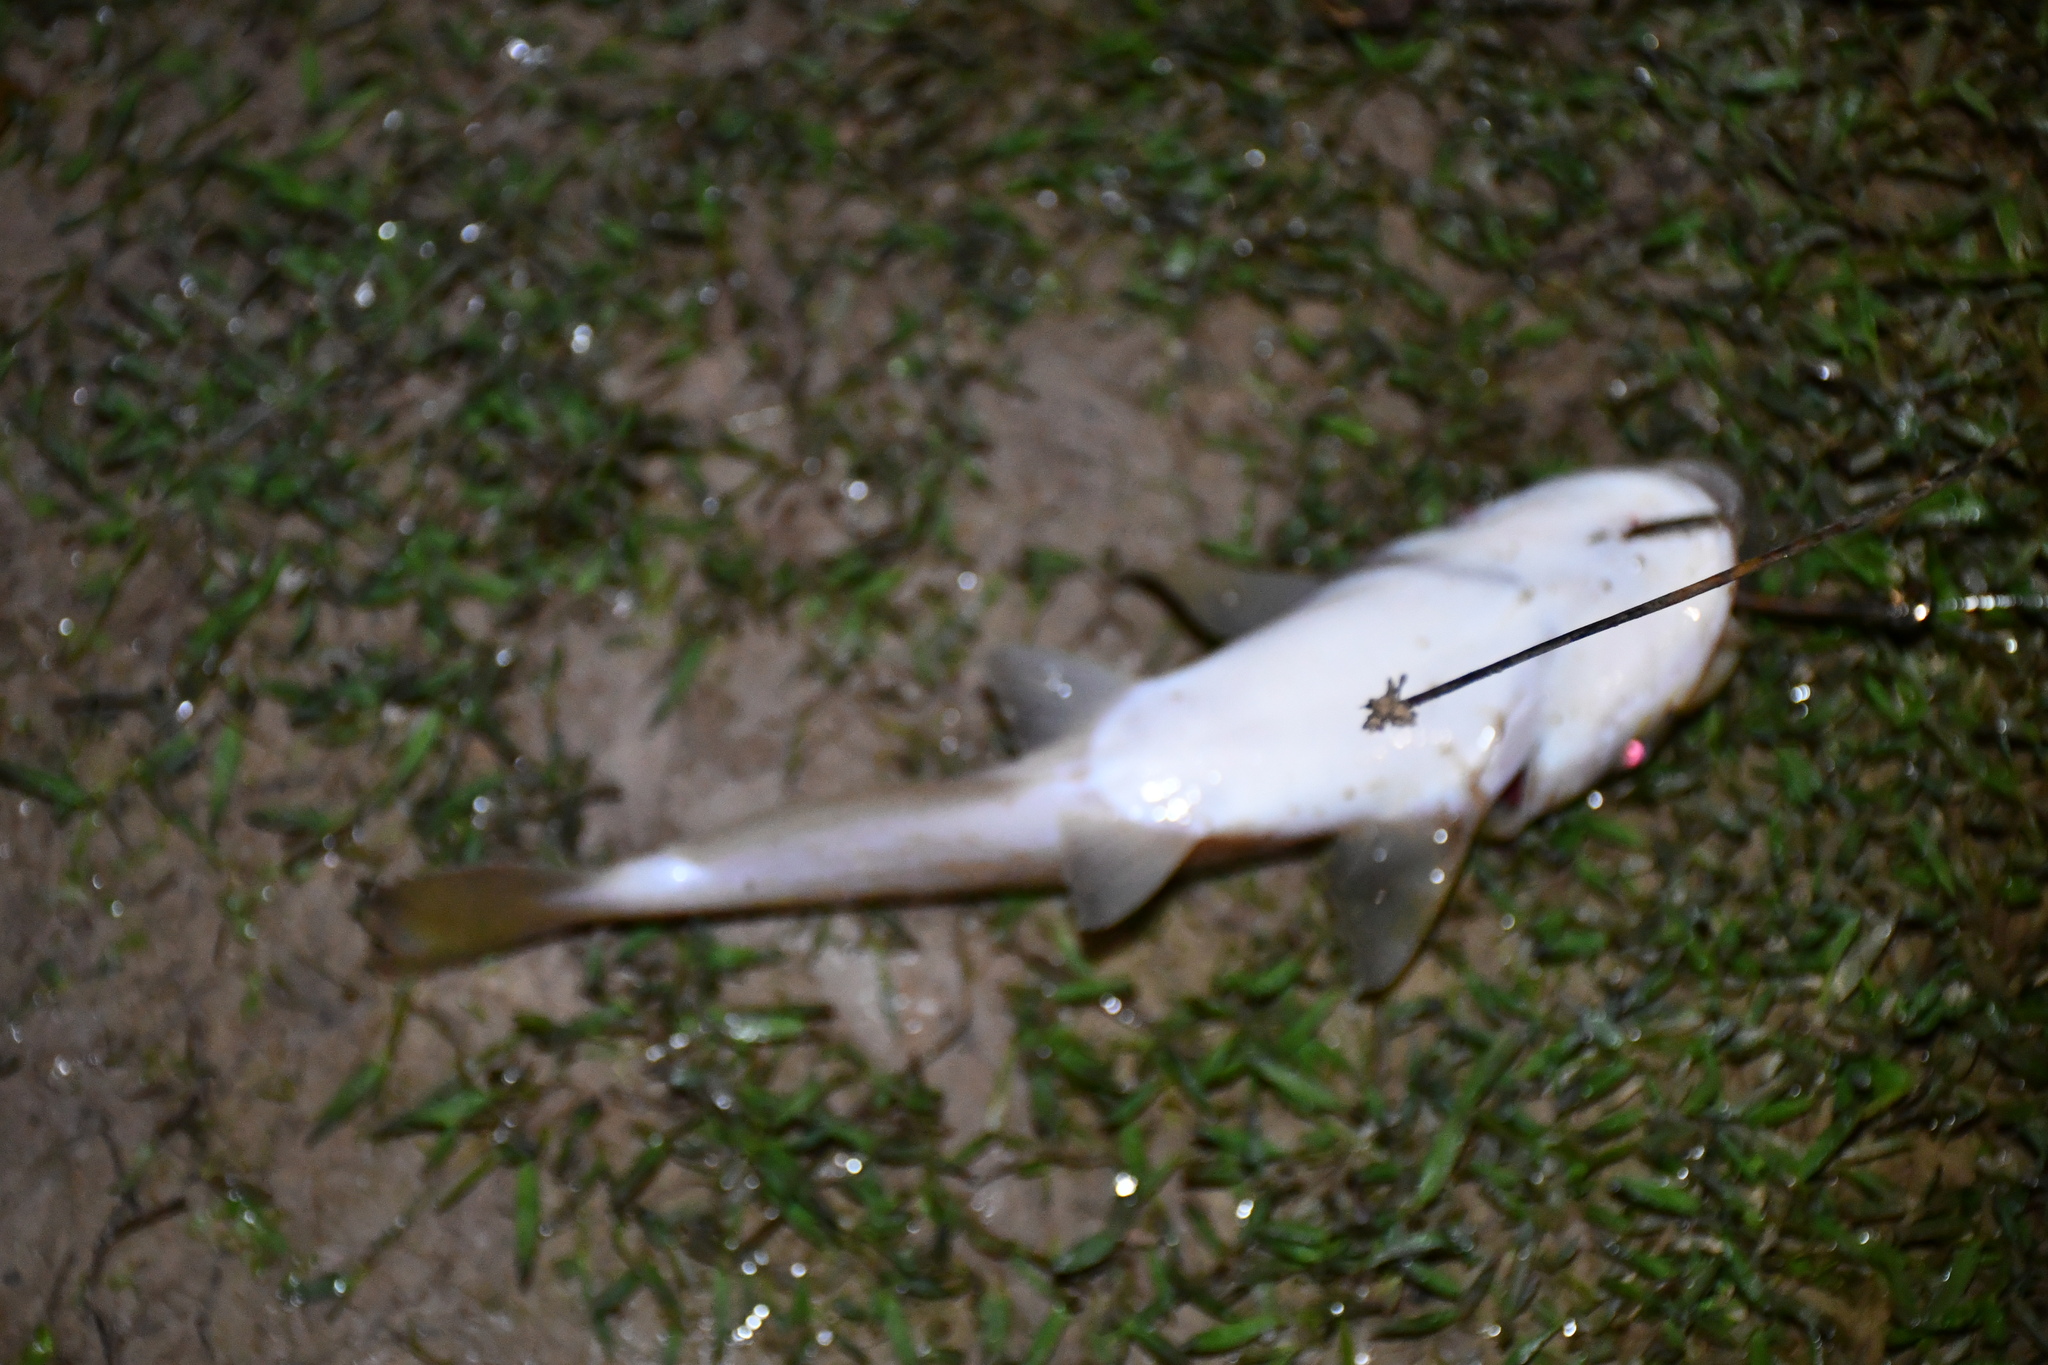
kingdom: Animalia
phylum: Chordata
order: Siluriformes
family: Auchenipteridae
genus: Ageneiosus
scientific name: Ageneiosus inermis
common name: Manduba
